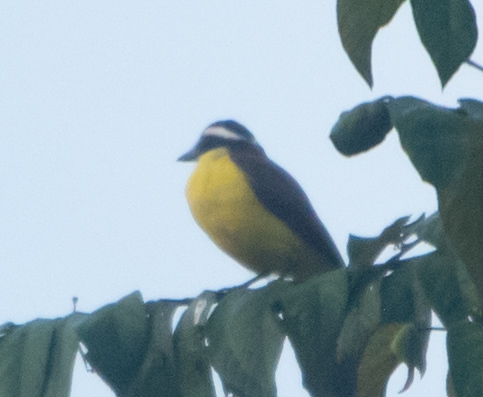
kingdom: Animalia
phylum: Chordata
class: Aves
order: Passeriformes
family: Tyrannidae
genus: Pitangus
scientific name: Pitangus sulphuratus
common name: Great kiskadee
